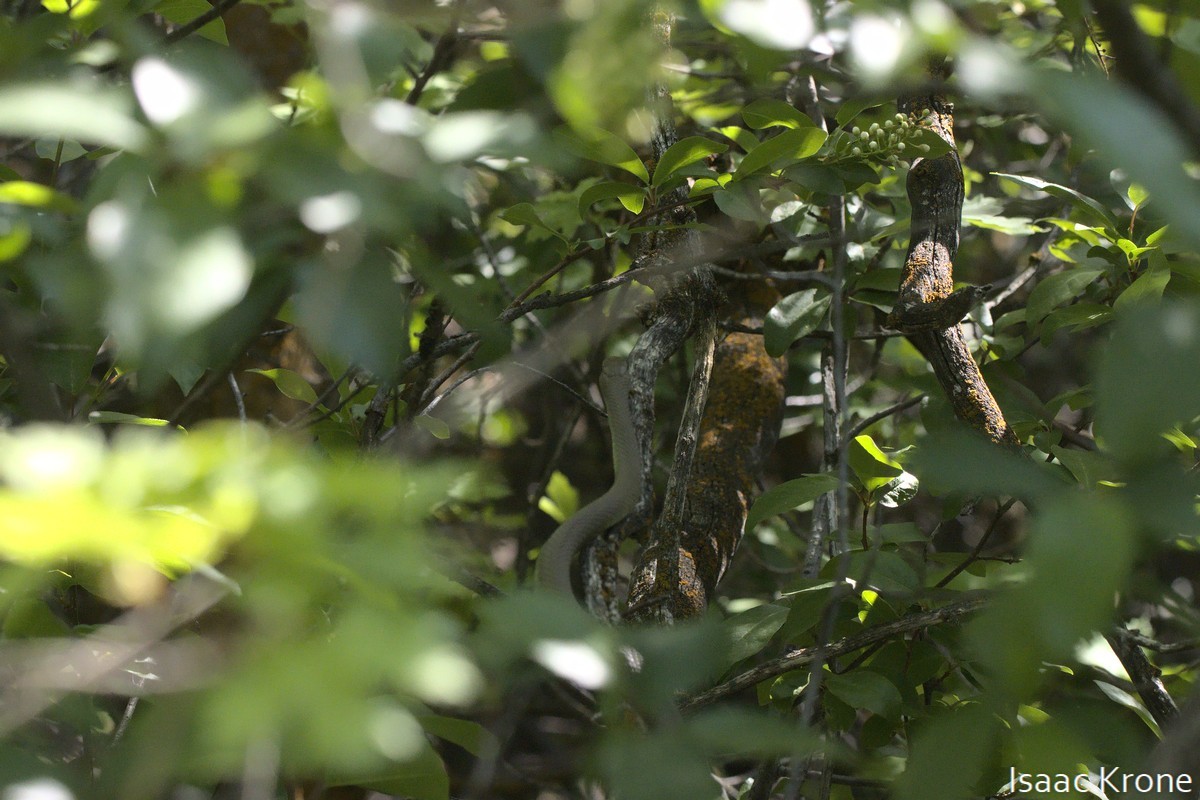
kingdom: Animalia
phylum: Chordata
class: Squamata
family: Colubridae
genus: Coluber
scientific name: Coluber constrictor
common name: Eastern racer
